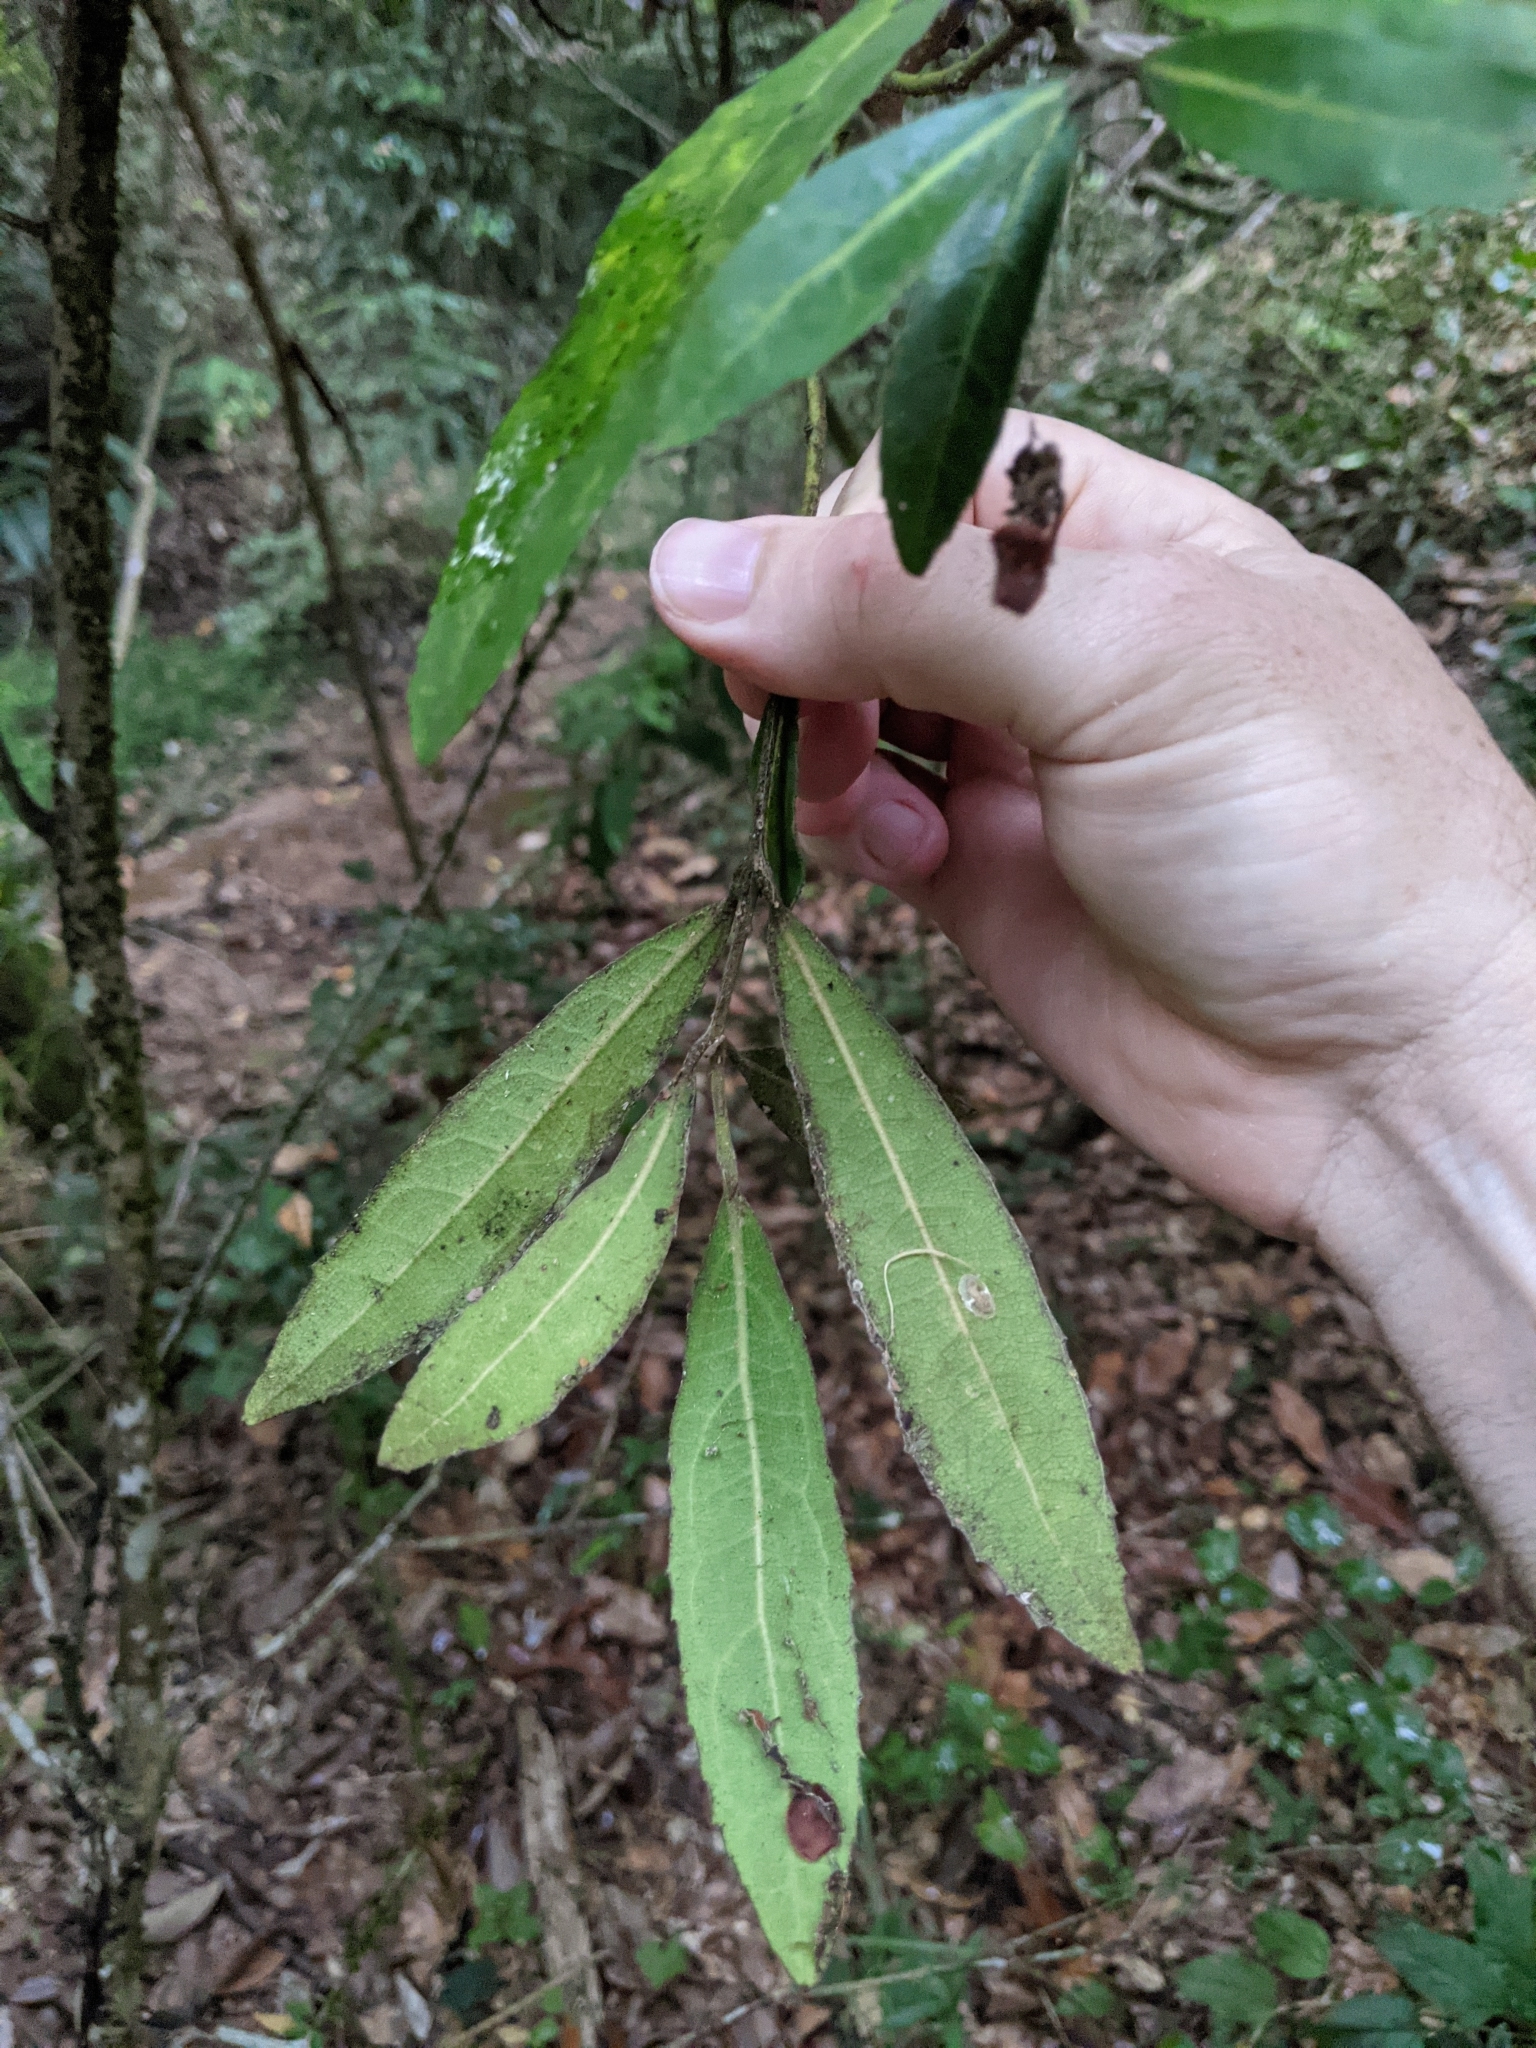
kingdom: Plantae
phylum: Tracheophyta
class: Magnoliopsida
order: Laurales
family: Monimiaceae
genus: Wilkiea
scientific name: Wilkiea hugeliana
